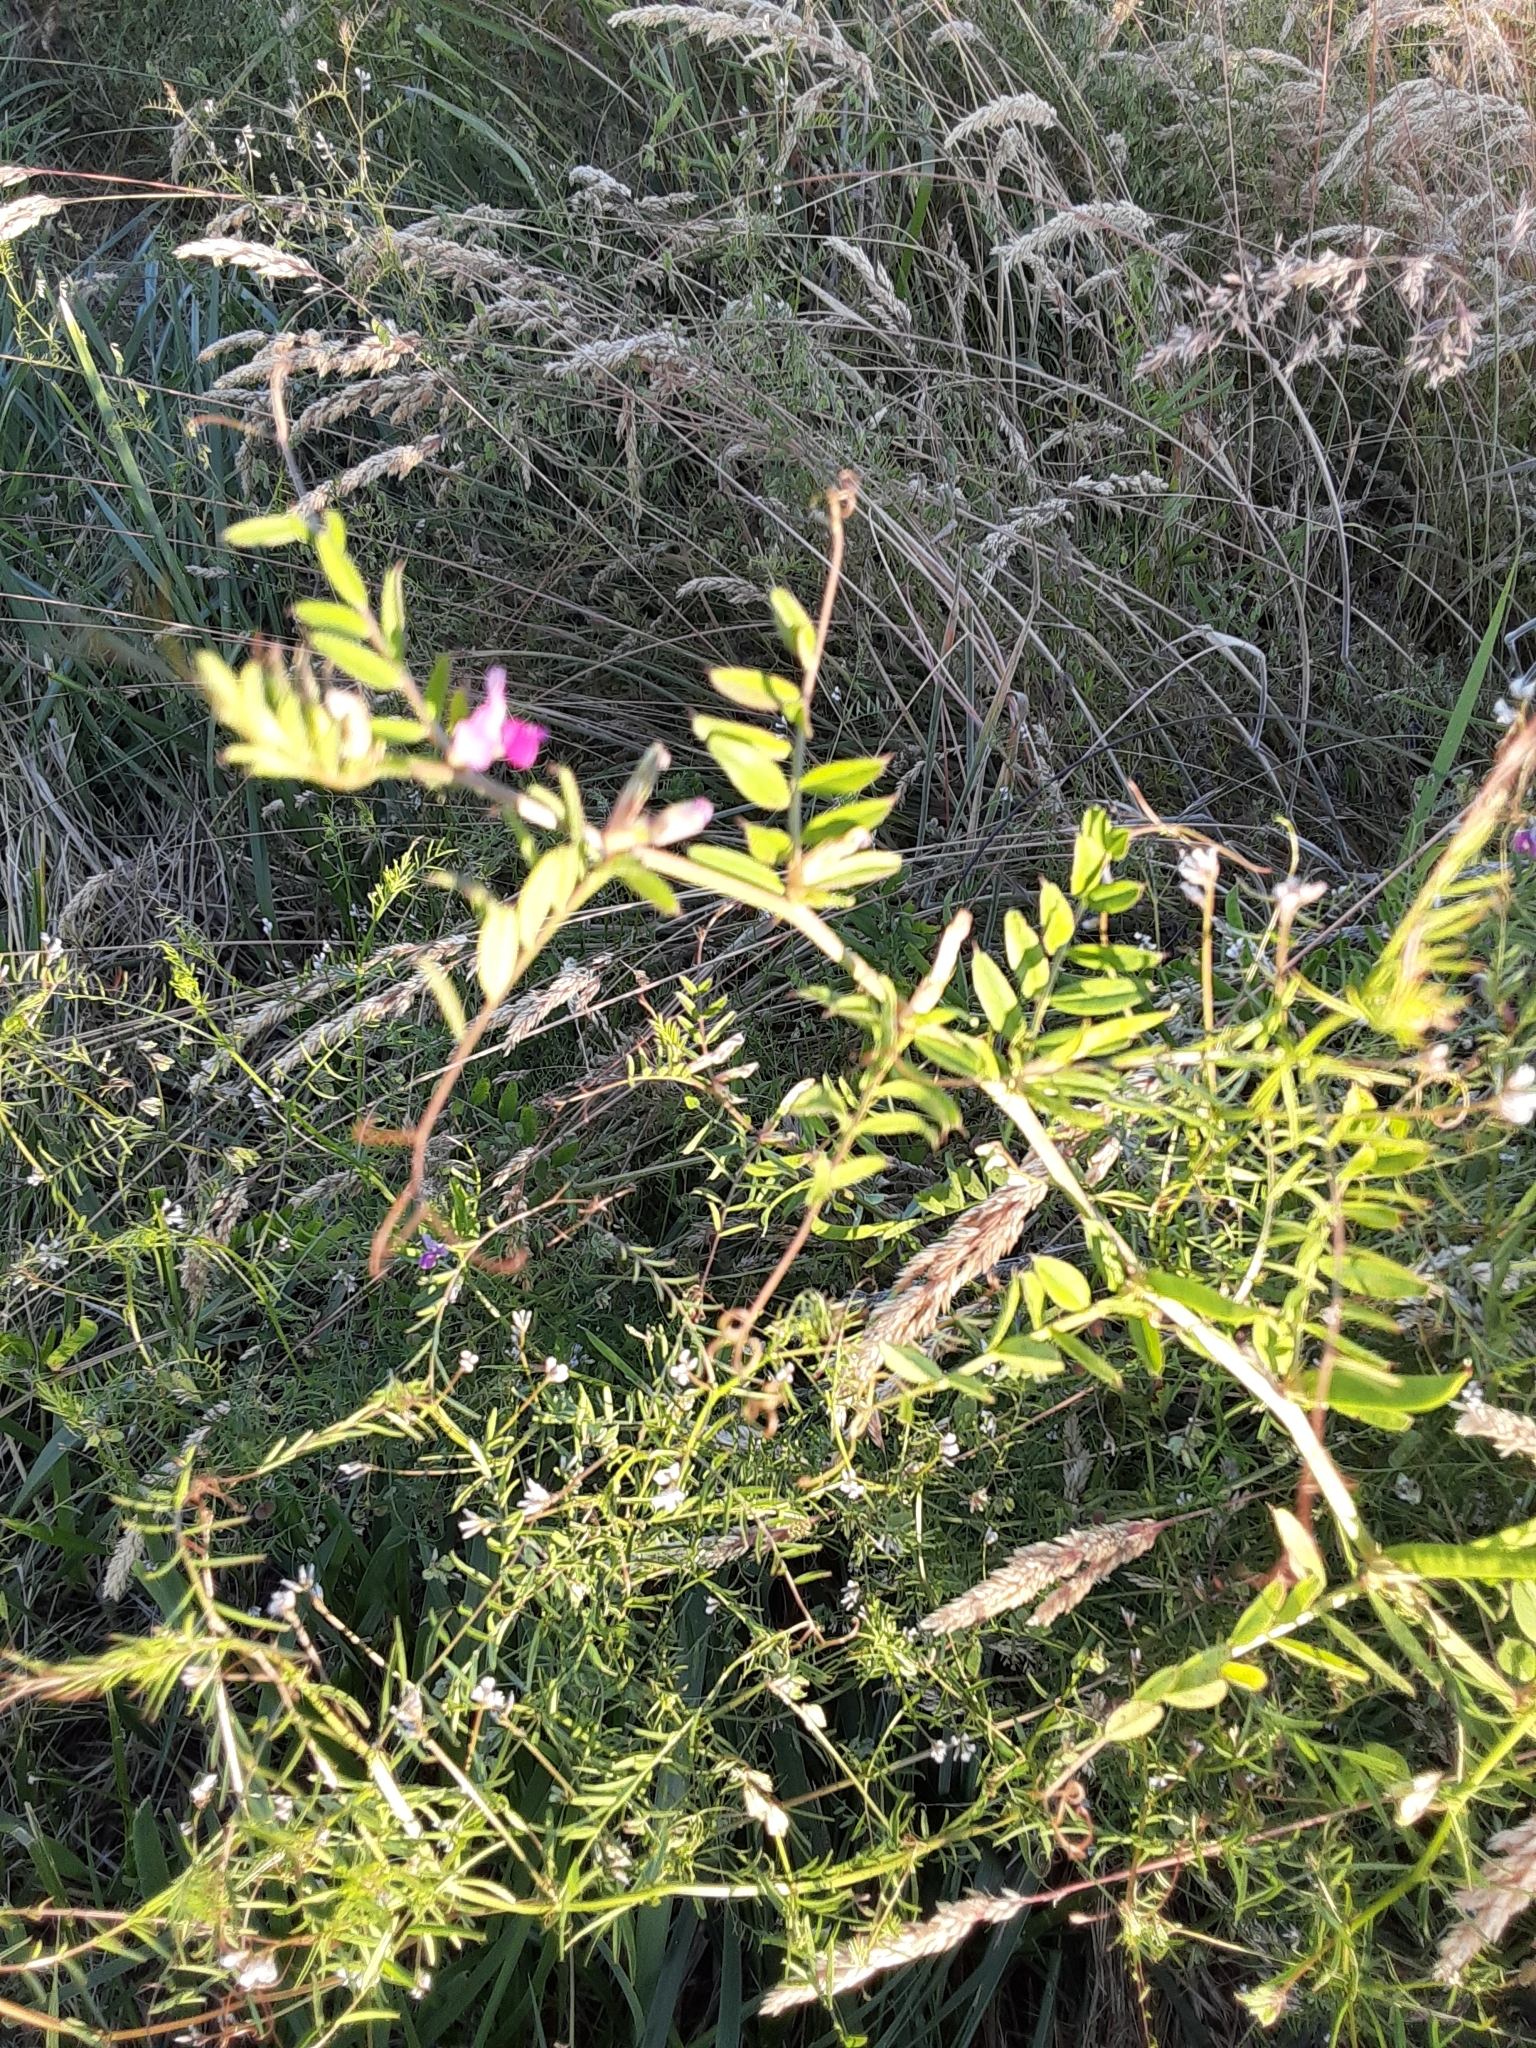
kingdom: Plantae
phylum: Tracheophyta
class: Magnoliopsida
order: Fabales
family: Fabaceae
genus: Vicia
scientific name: Vicia sativa
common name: Garden vetch
